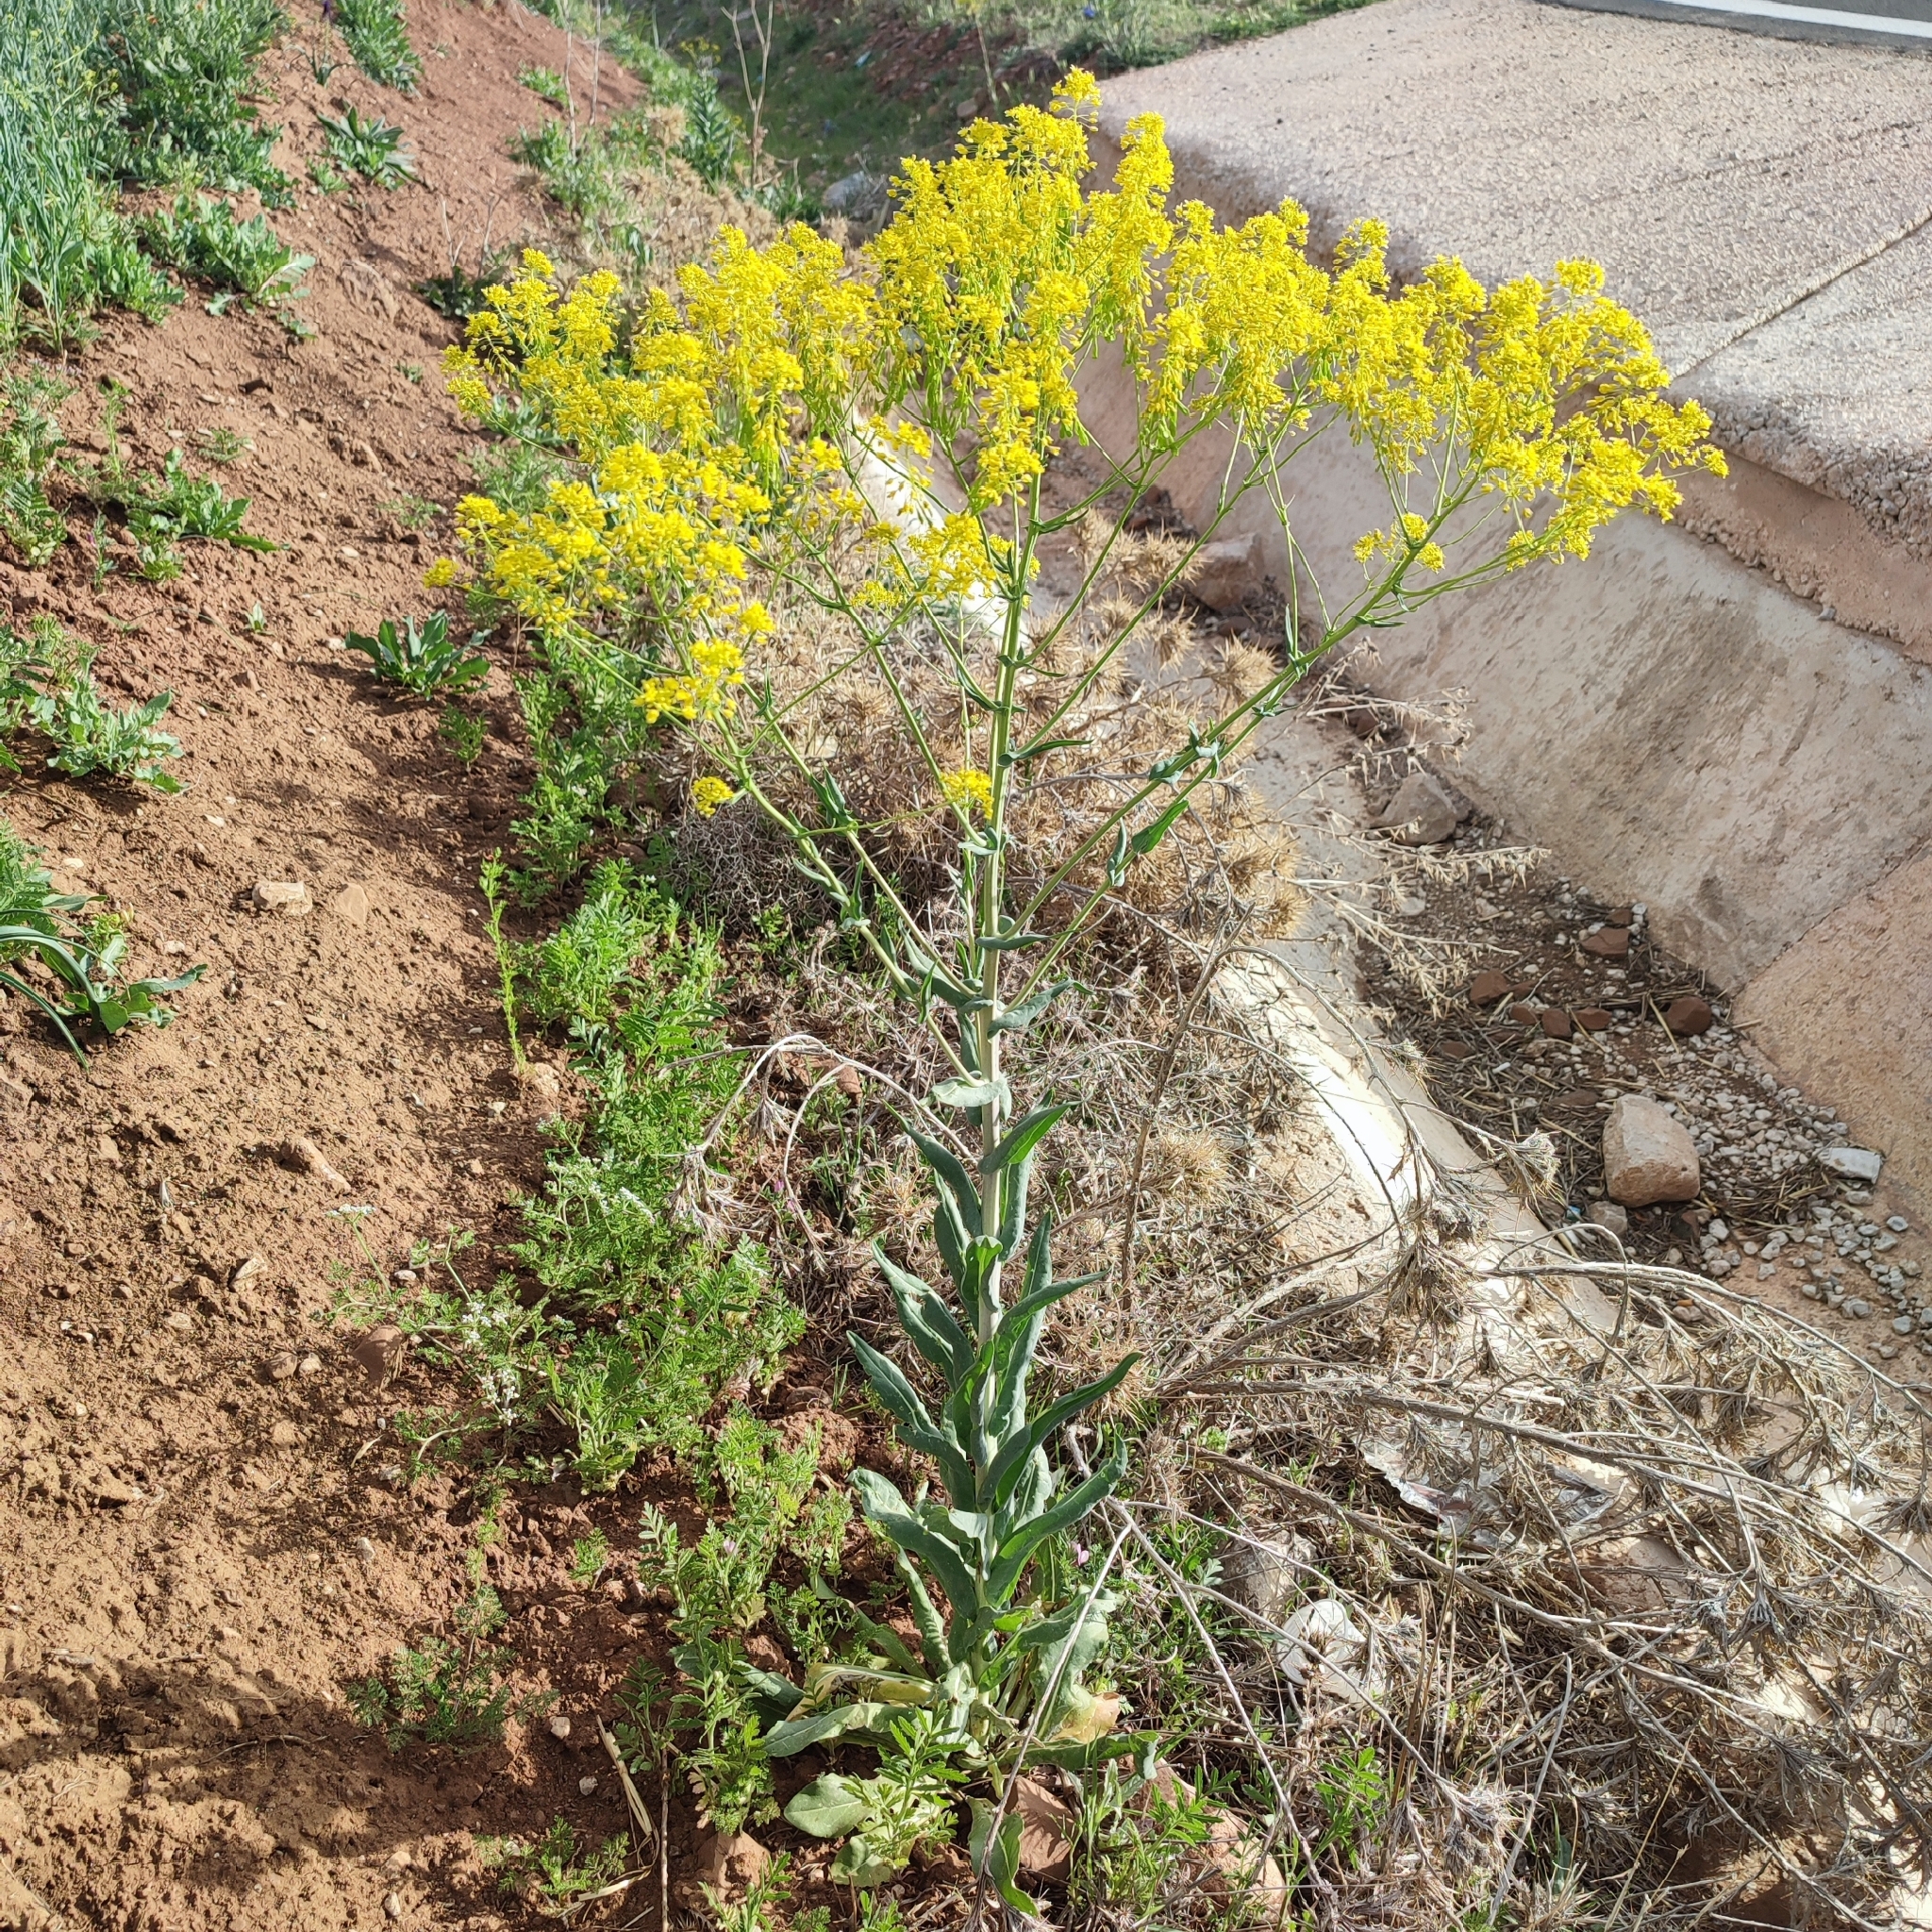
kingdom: Plantae
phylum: Tracheophyta
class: Magnoliopsida
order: Brassicales
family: Brassicaceae
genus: Isatis
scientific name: Isatis tinctoria
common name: Woad
